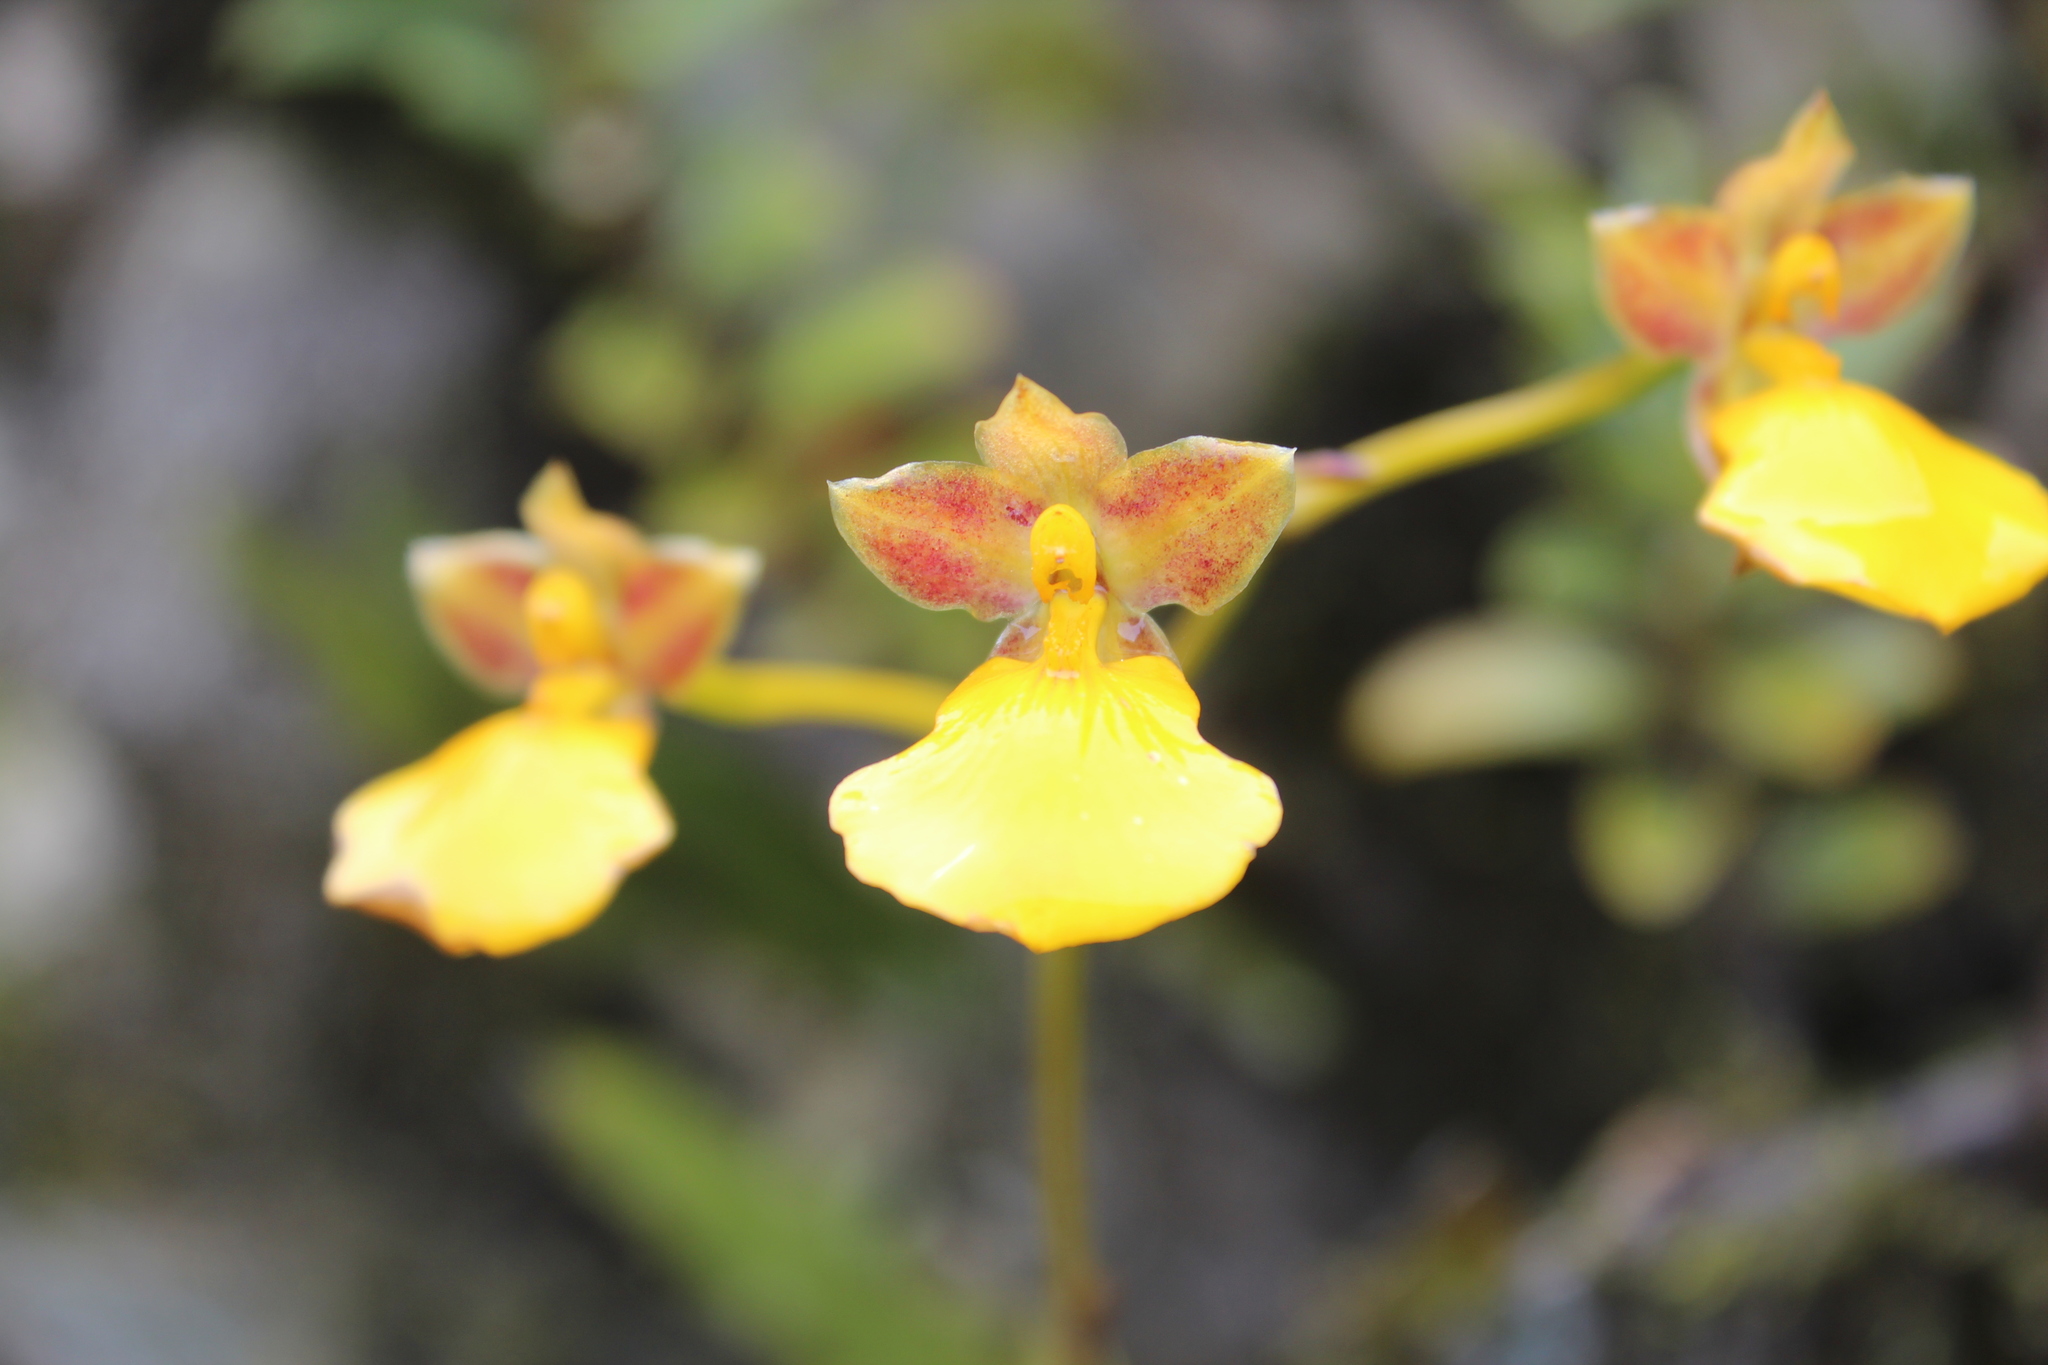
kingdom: Plantae
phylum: Tracheophyta
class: Liliopsida
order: Asparagales
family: Orchidaceae
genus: Cyrtochilum
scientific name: Cyrtochilum aureum
